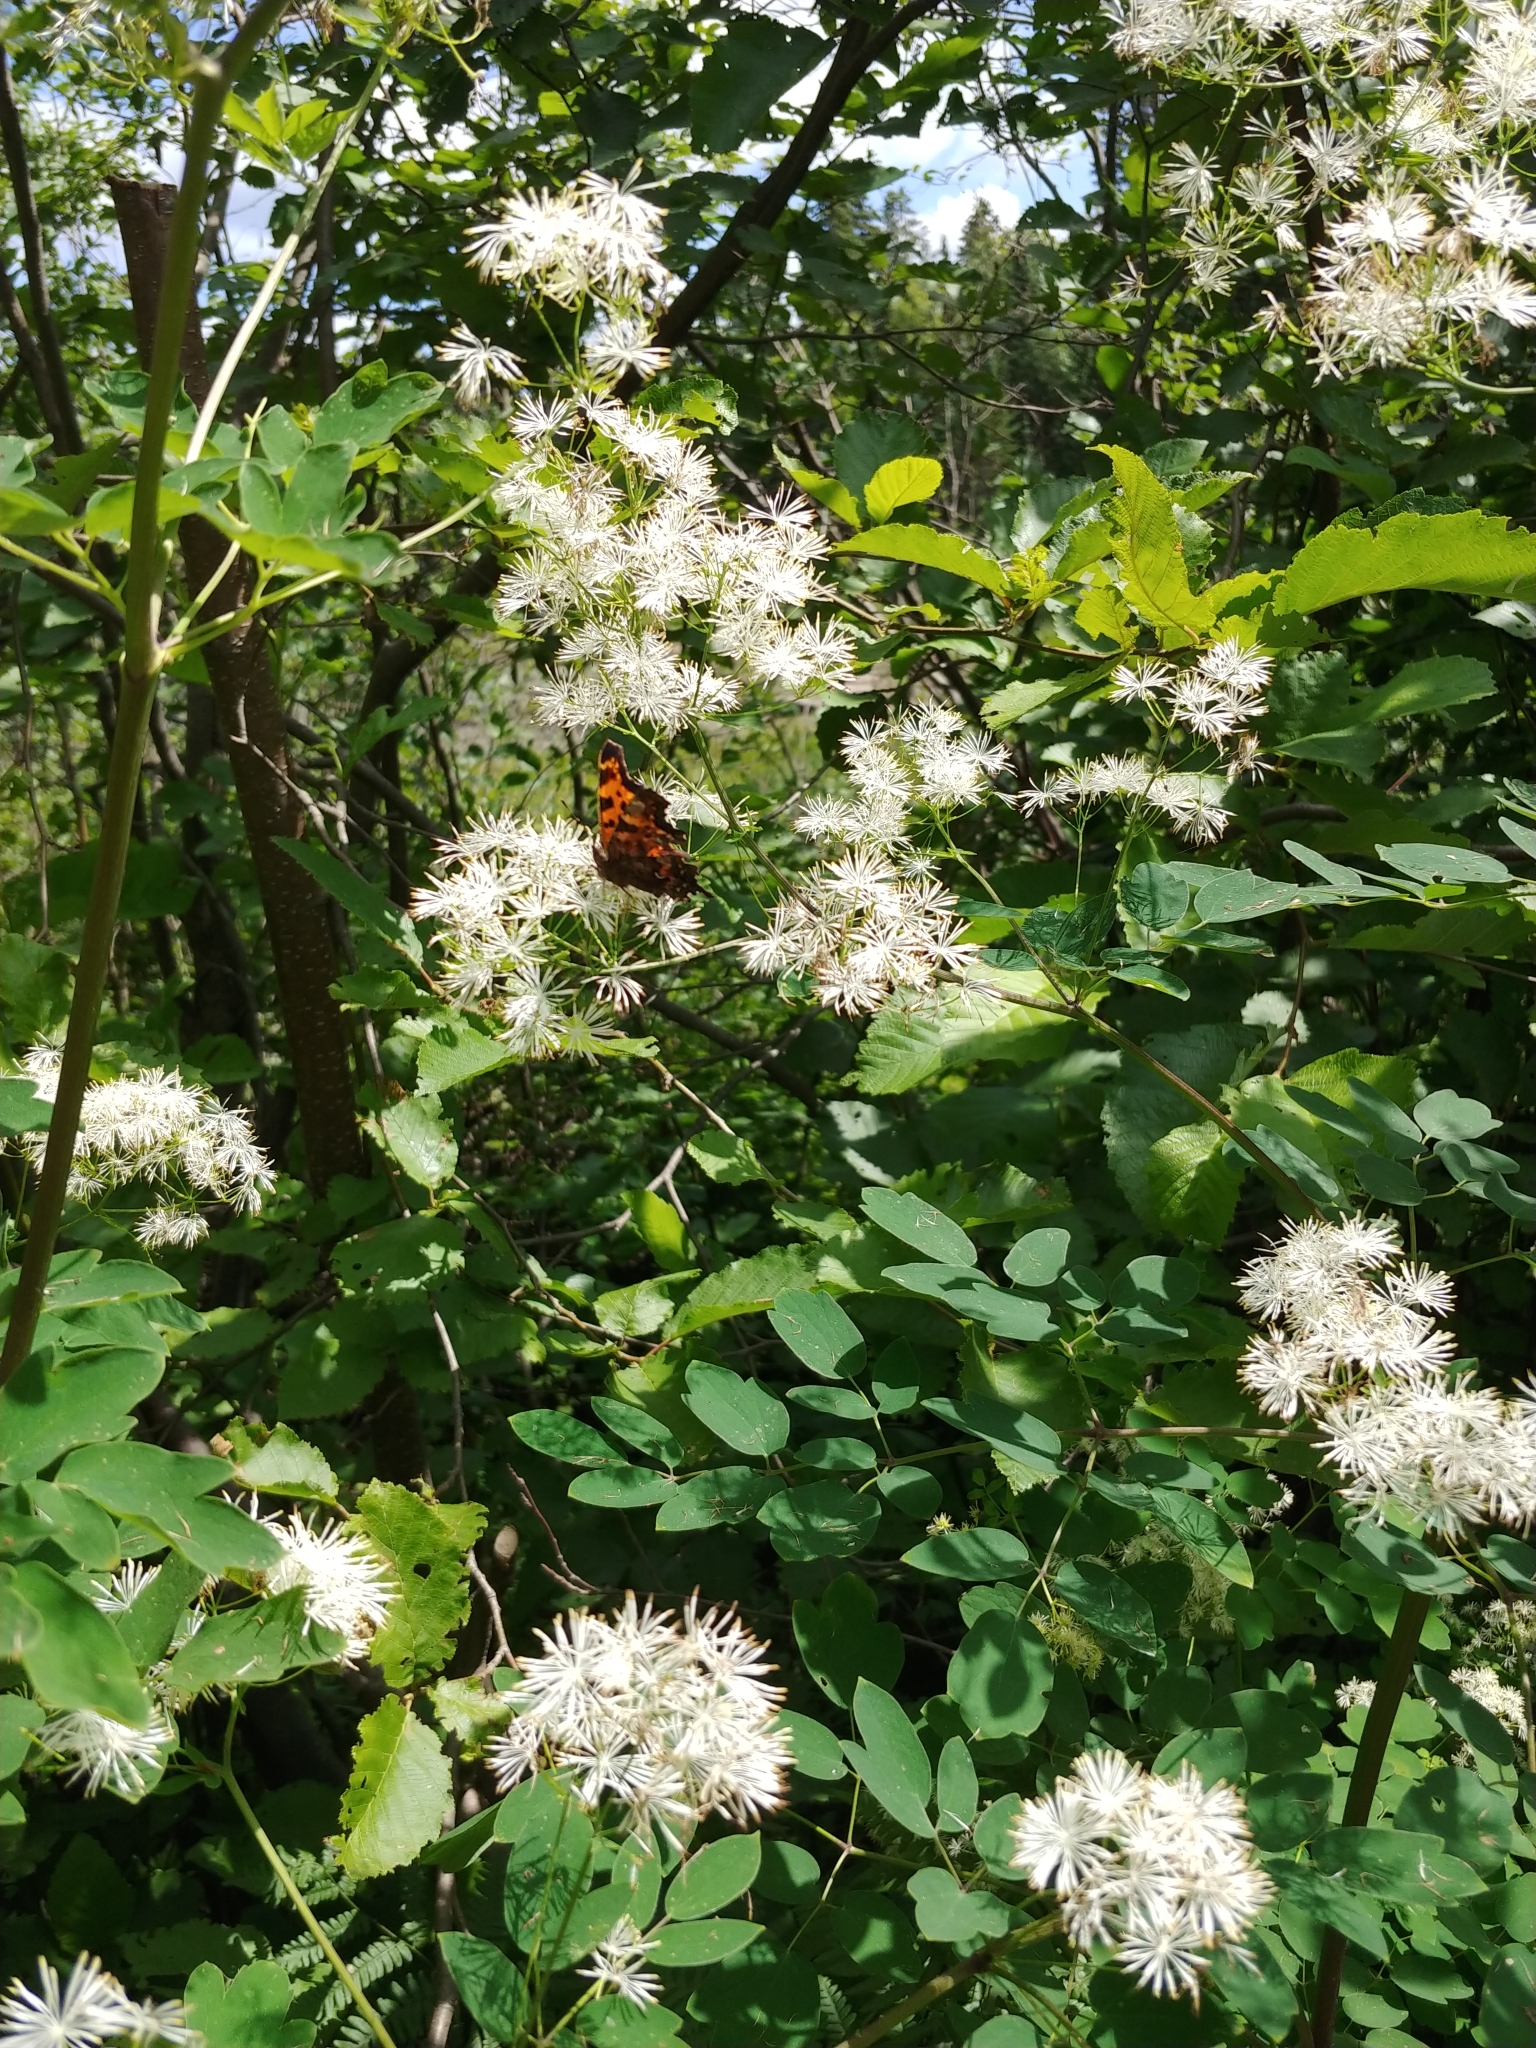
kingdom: Animalia
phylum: Arthropoda
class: Insecta
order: Lepidoptera
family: Nymphalidae
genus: Polygonia
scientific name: Polygonia faunus
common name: Green comma
